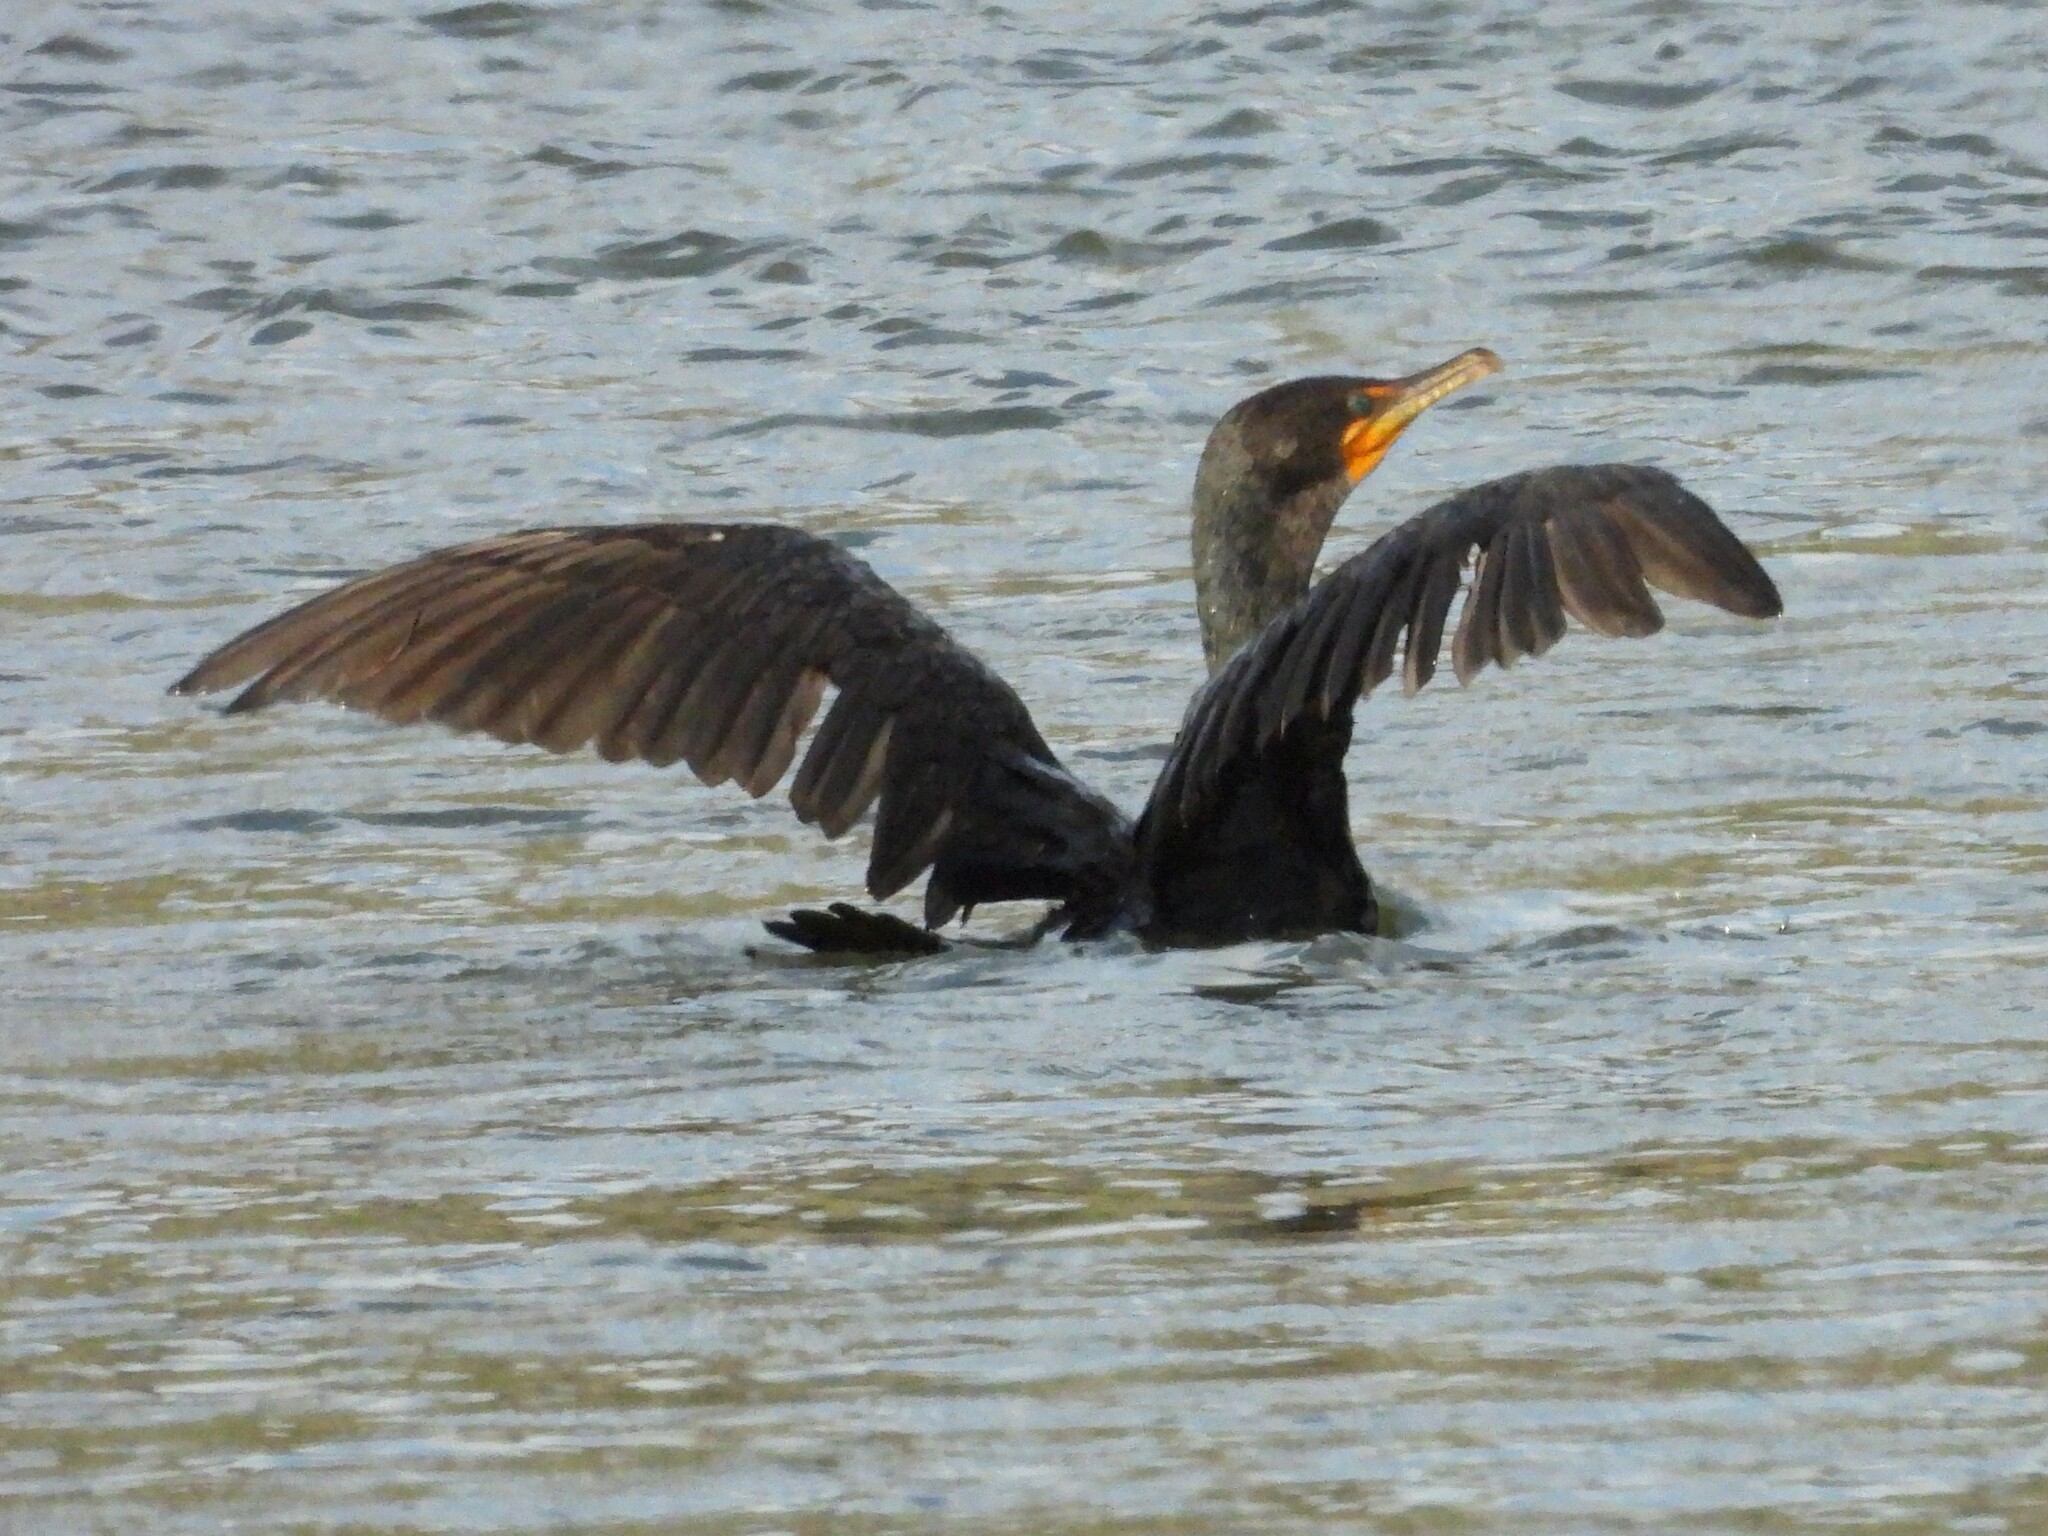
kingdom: Animalia
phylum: Chordata
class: Aves
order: Suliformes
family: Phalacrocoracidae
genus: Phalacrocorax
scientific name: Phalacrocorax auritus
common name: Double-crested cormorant
